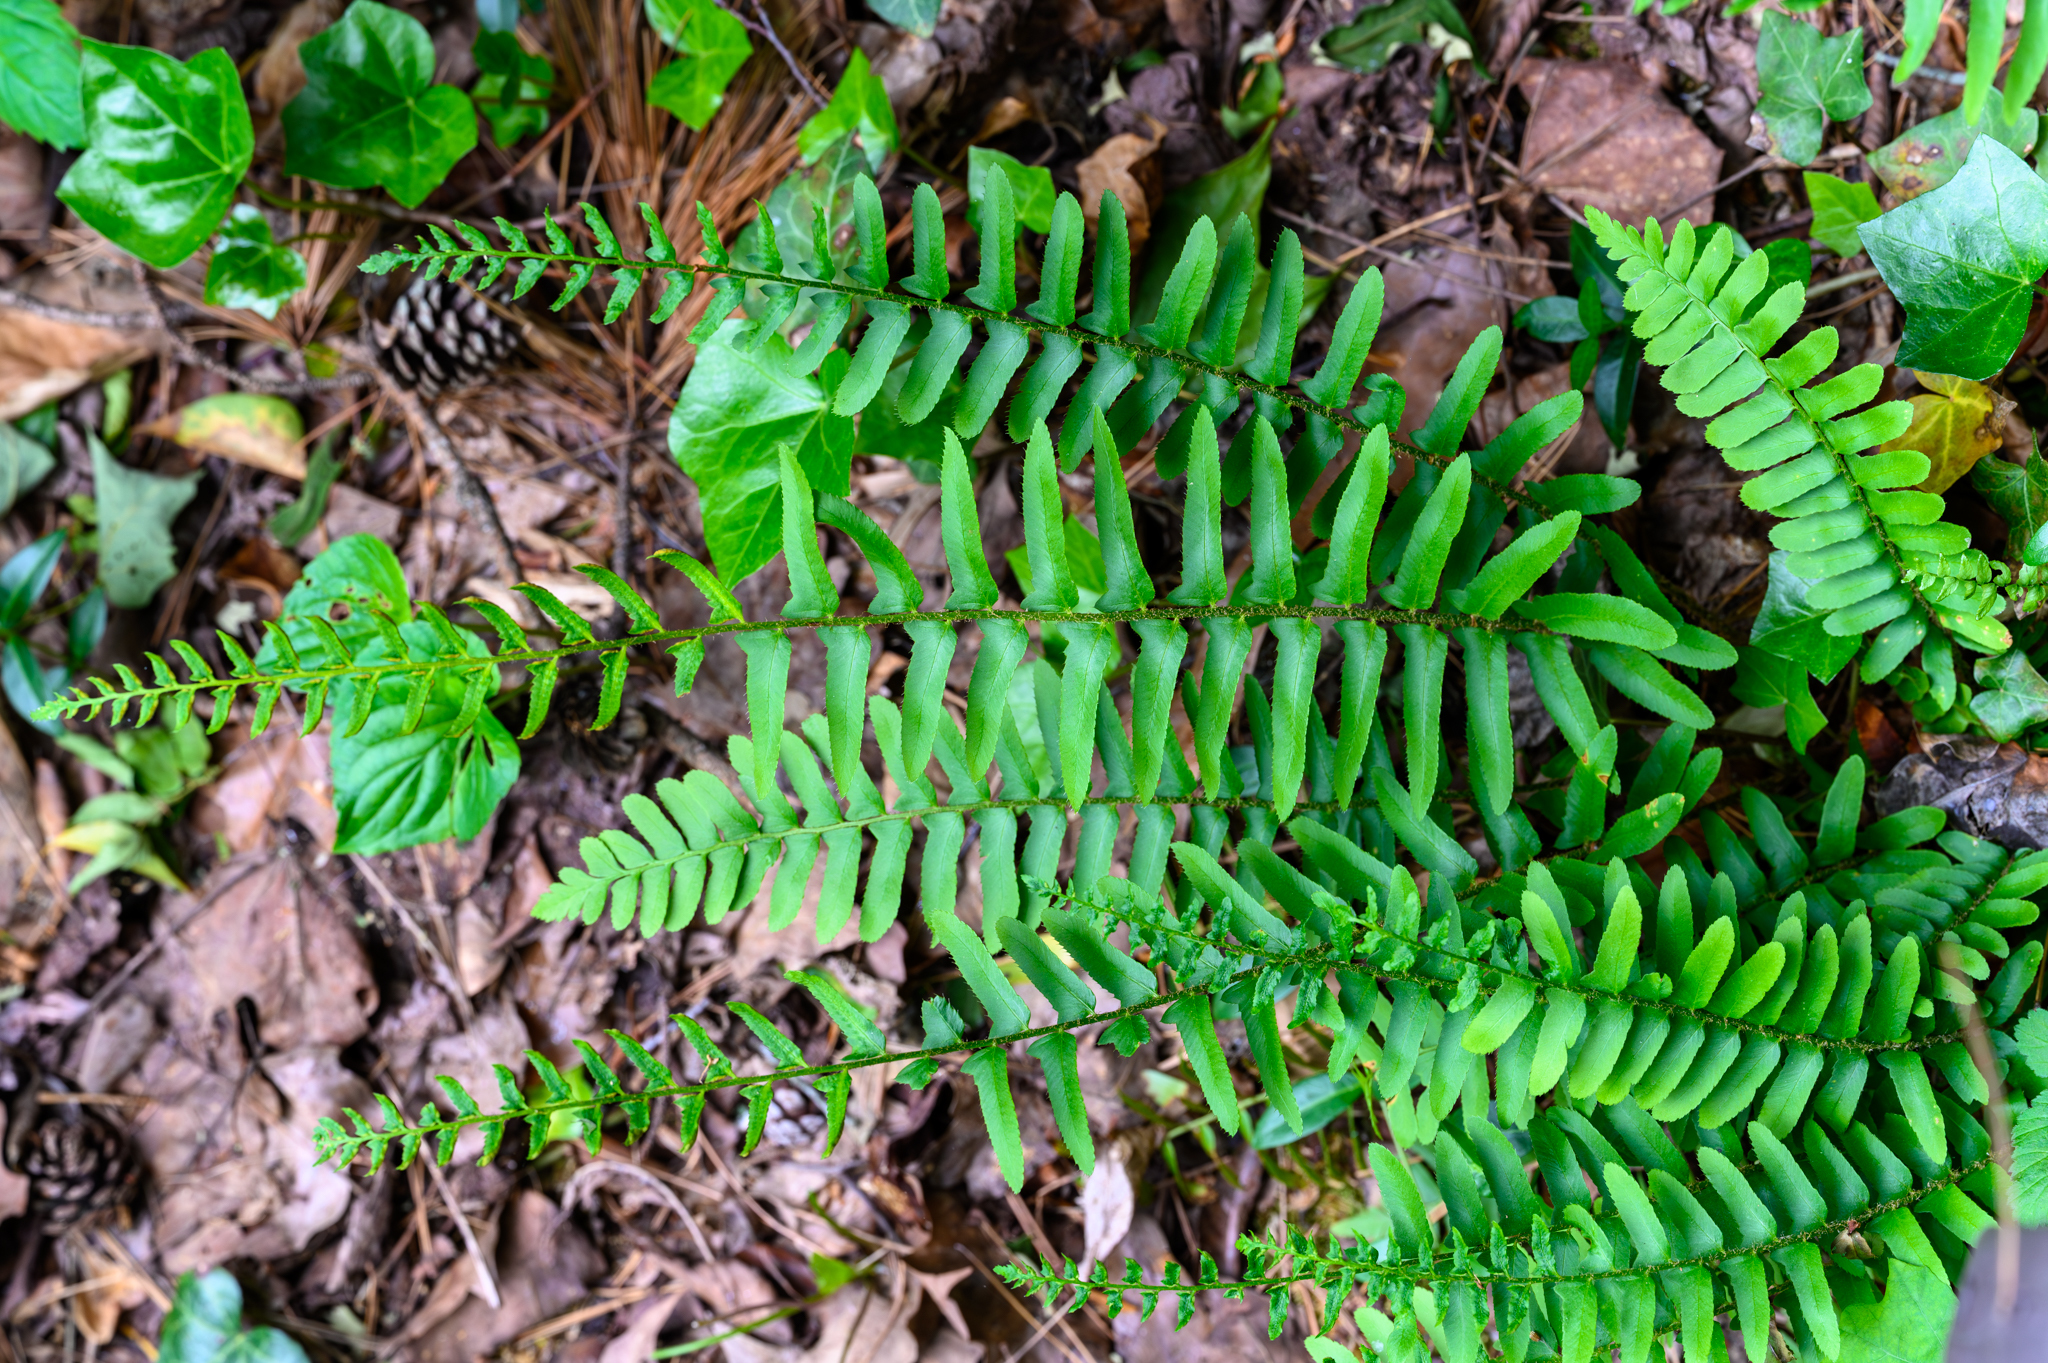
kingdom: Plantae
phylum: Tracheophyta
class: Polypodiopsida
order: Polypodiales
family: Dryopteridaceae
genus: Polystichum
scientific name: Polystichum acrostichoides
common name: Christmas fern
